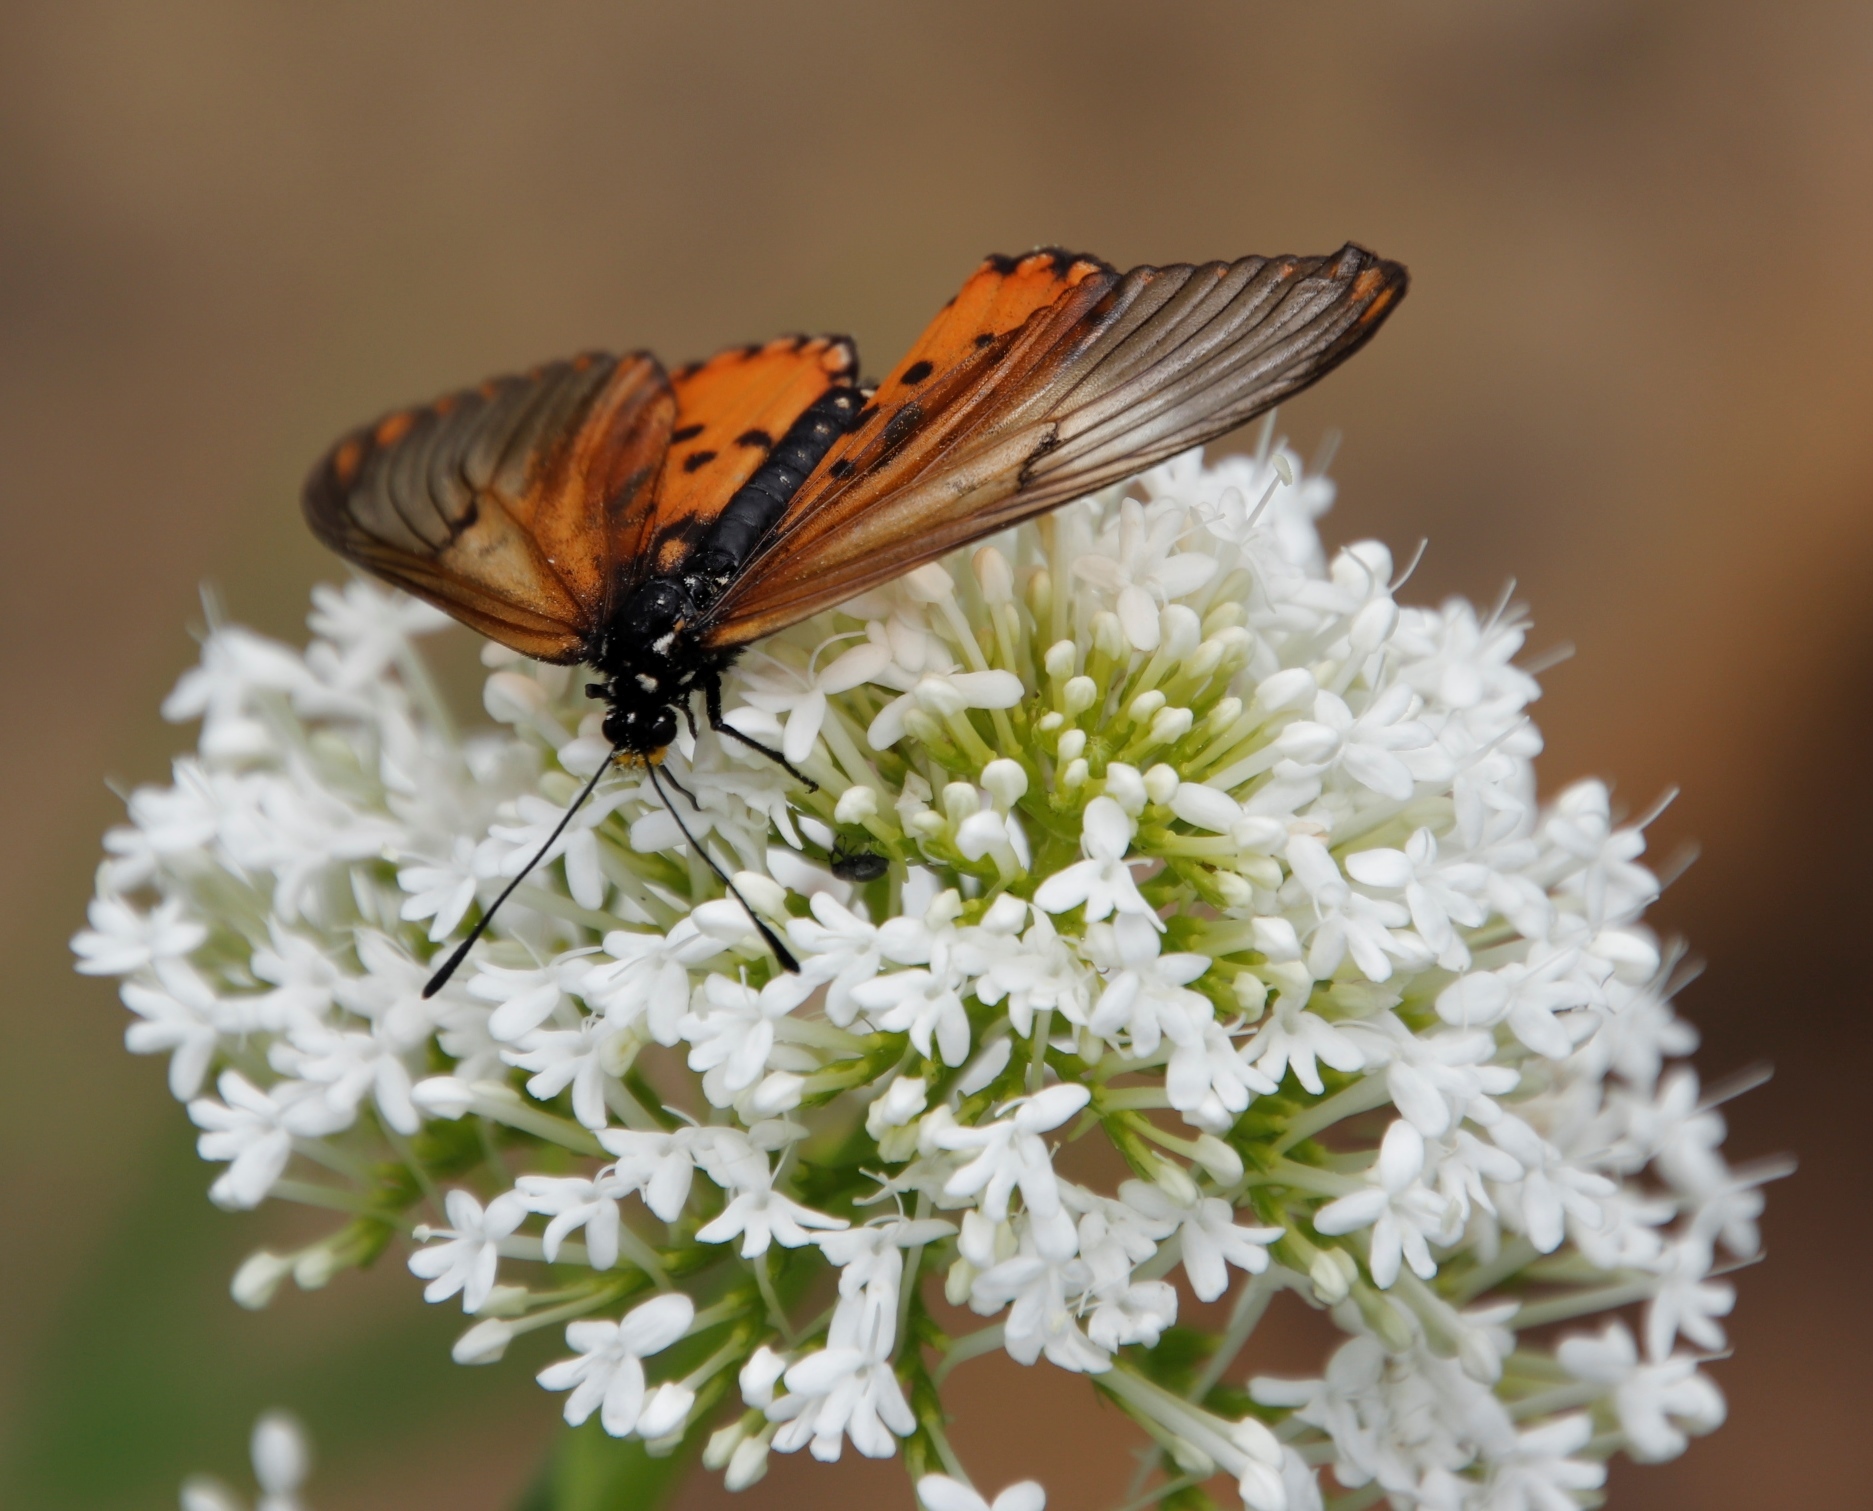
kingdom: Plantae
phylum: Tracheophyta
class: Magnoliopsida
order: Dipsacales
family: Caprifoliaceae
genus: Centranthus
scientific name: Centranthus ruber
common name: Red valerian
